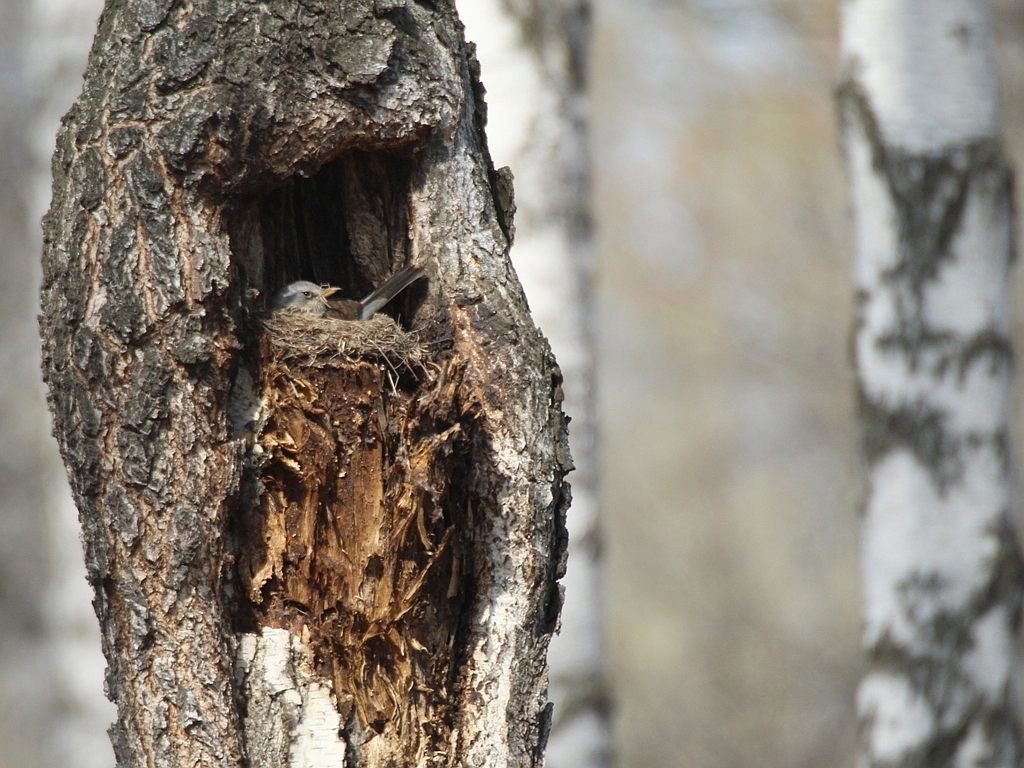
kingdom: Animalia
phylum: Chordata
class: Aves
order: Passeriformes
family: Turdidae
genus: Turdus
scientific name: Turdus pilaris
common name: Fieldfare
